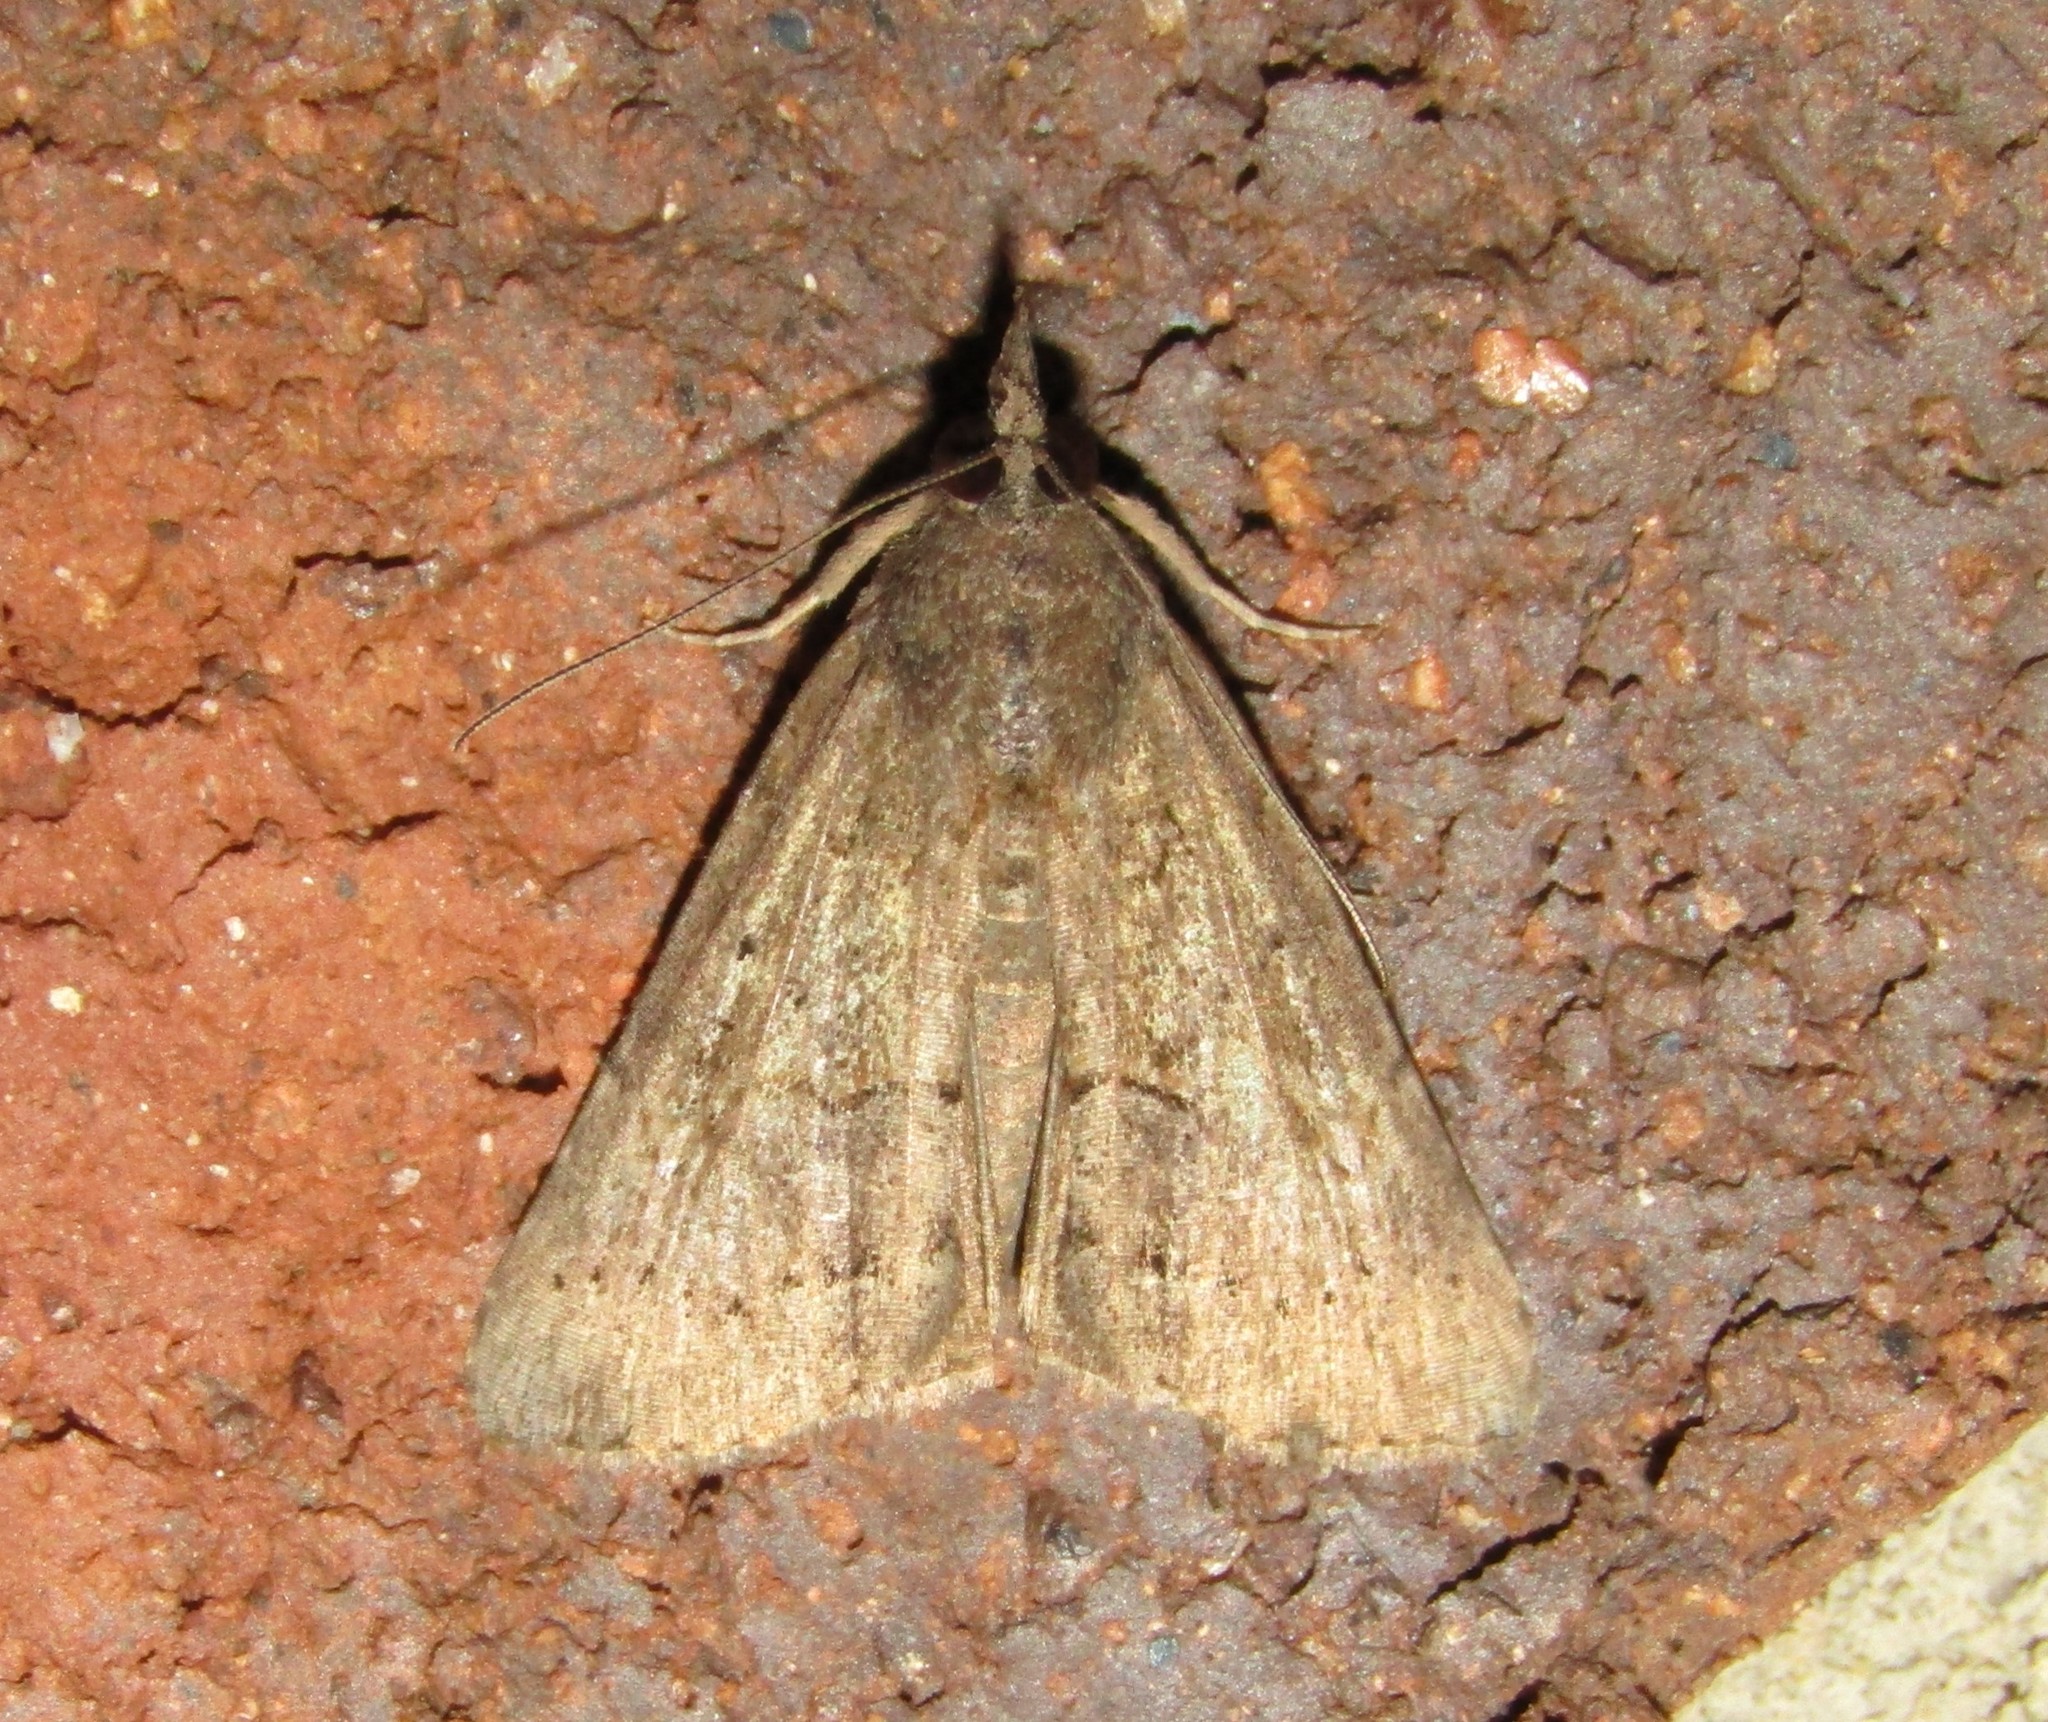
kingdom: Animalia
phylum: Arthropoda
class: Insecta
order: Lepidoptera
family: Erebidae
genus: Hypena
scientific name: Hypena scabra
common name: Green cloverworm
